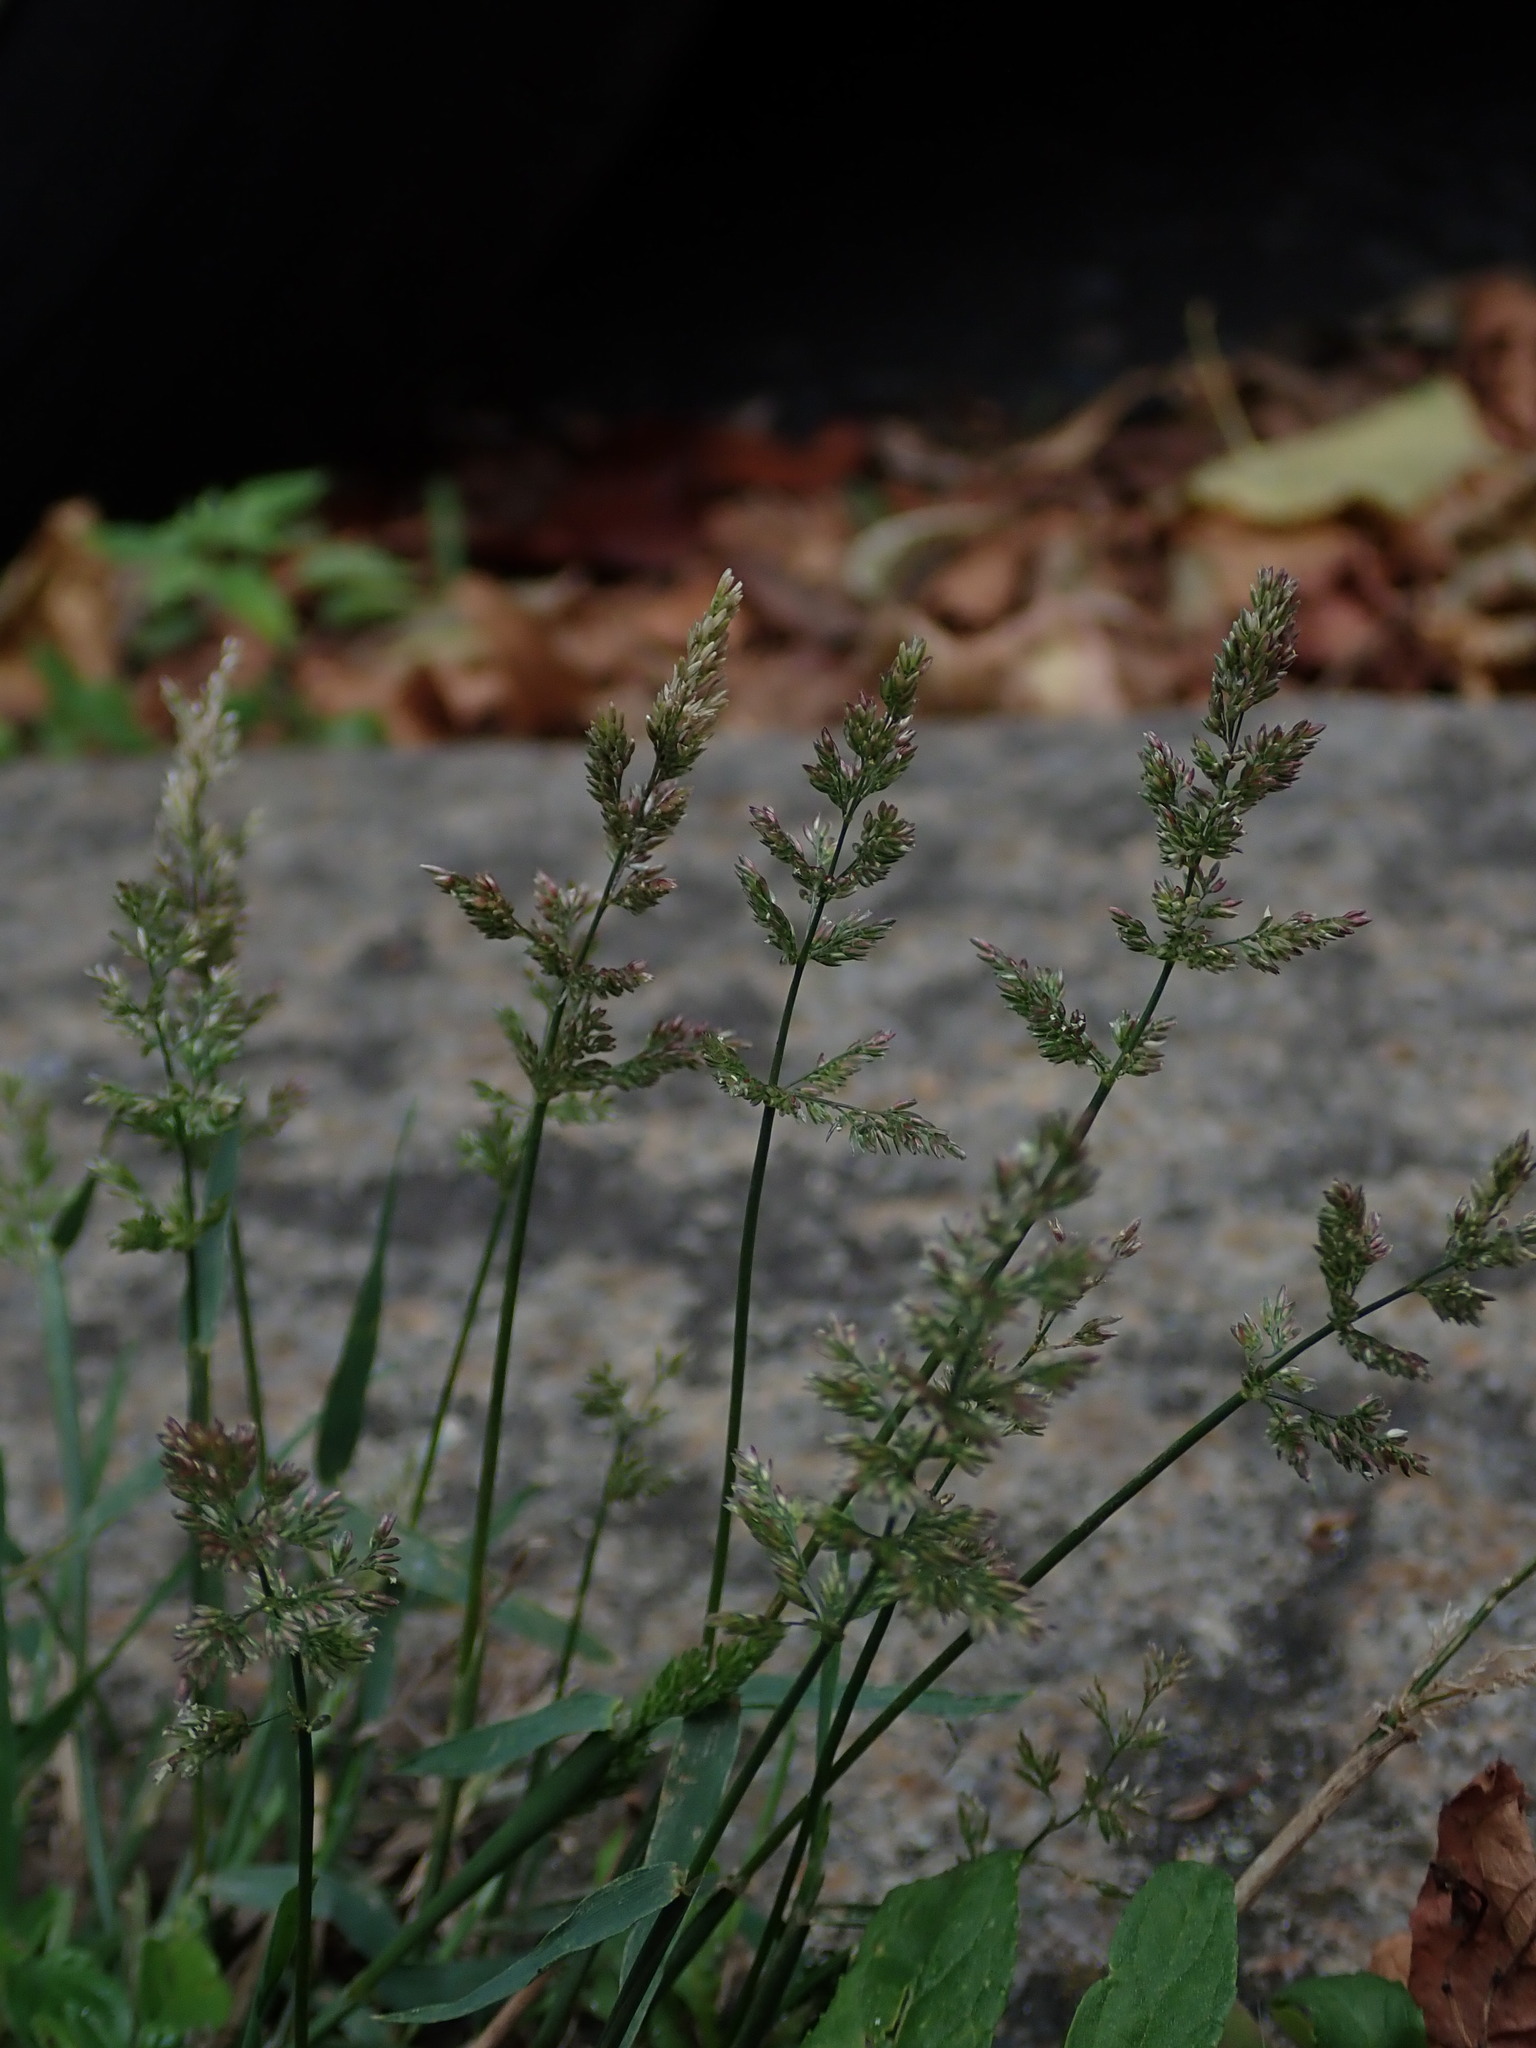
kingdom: Plantae
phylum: Tracheophyta
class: Liliopsida
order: Poales
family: Poaceae
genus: Polypogon
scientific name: Polypogon viridis
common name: Water bent
